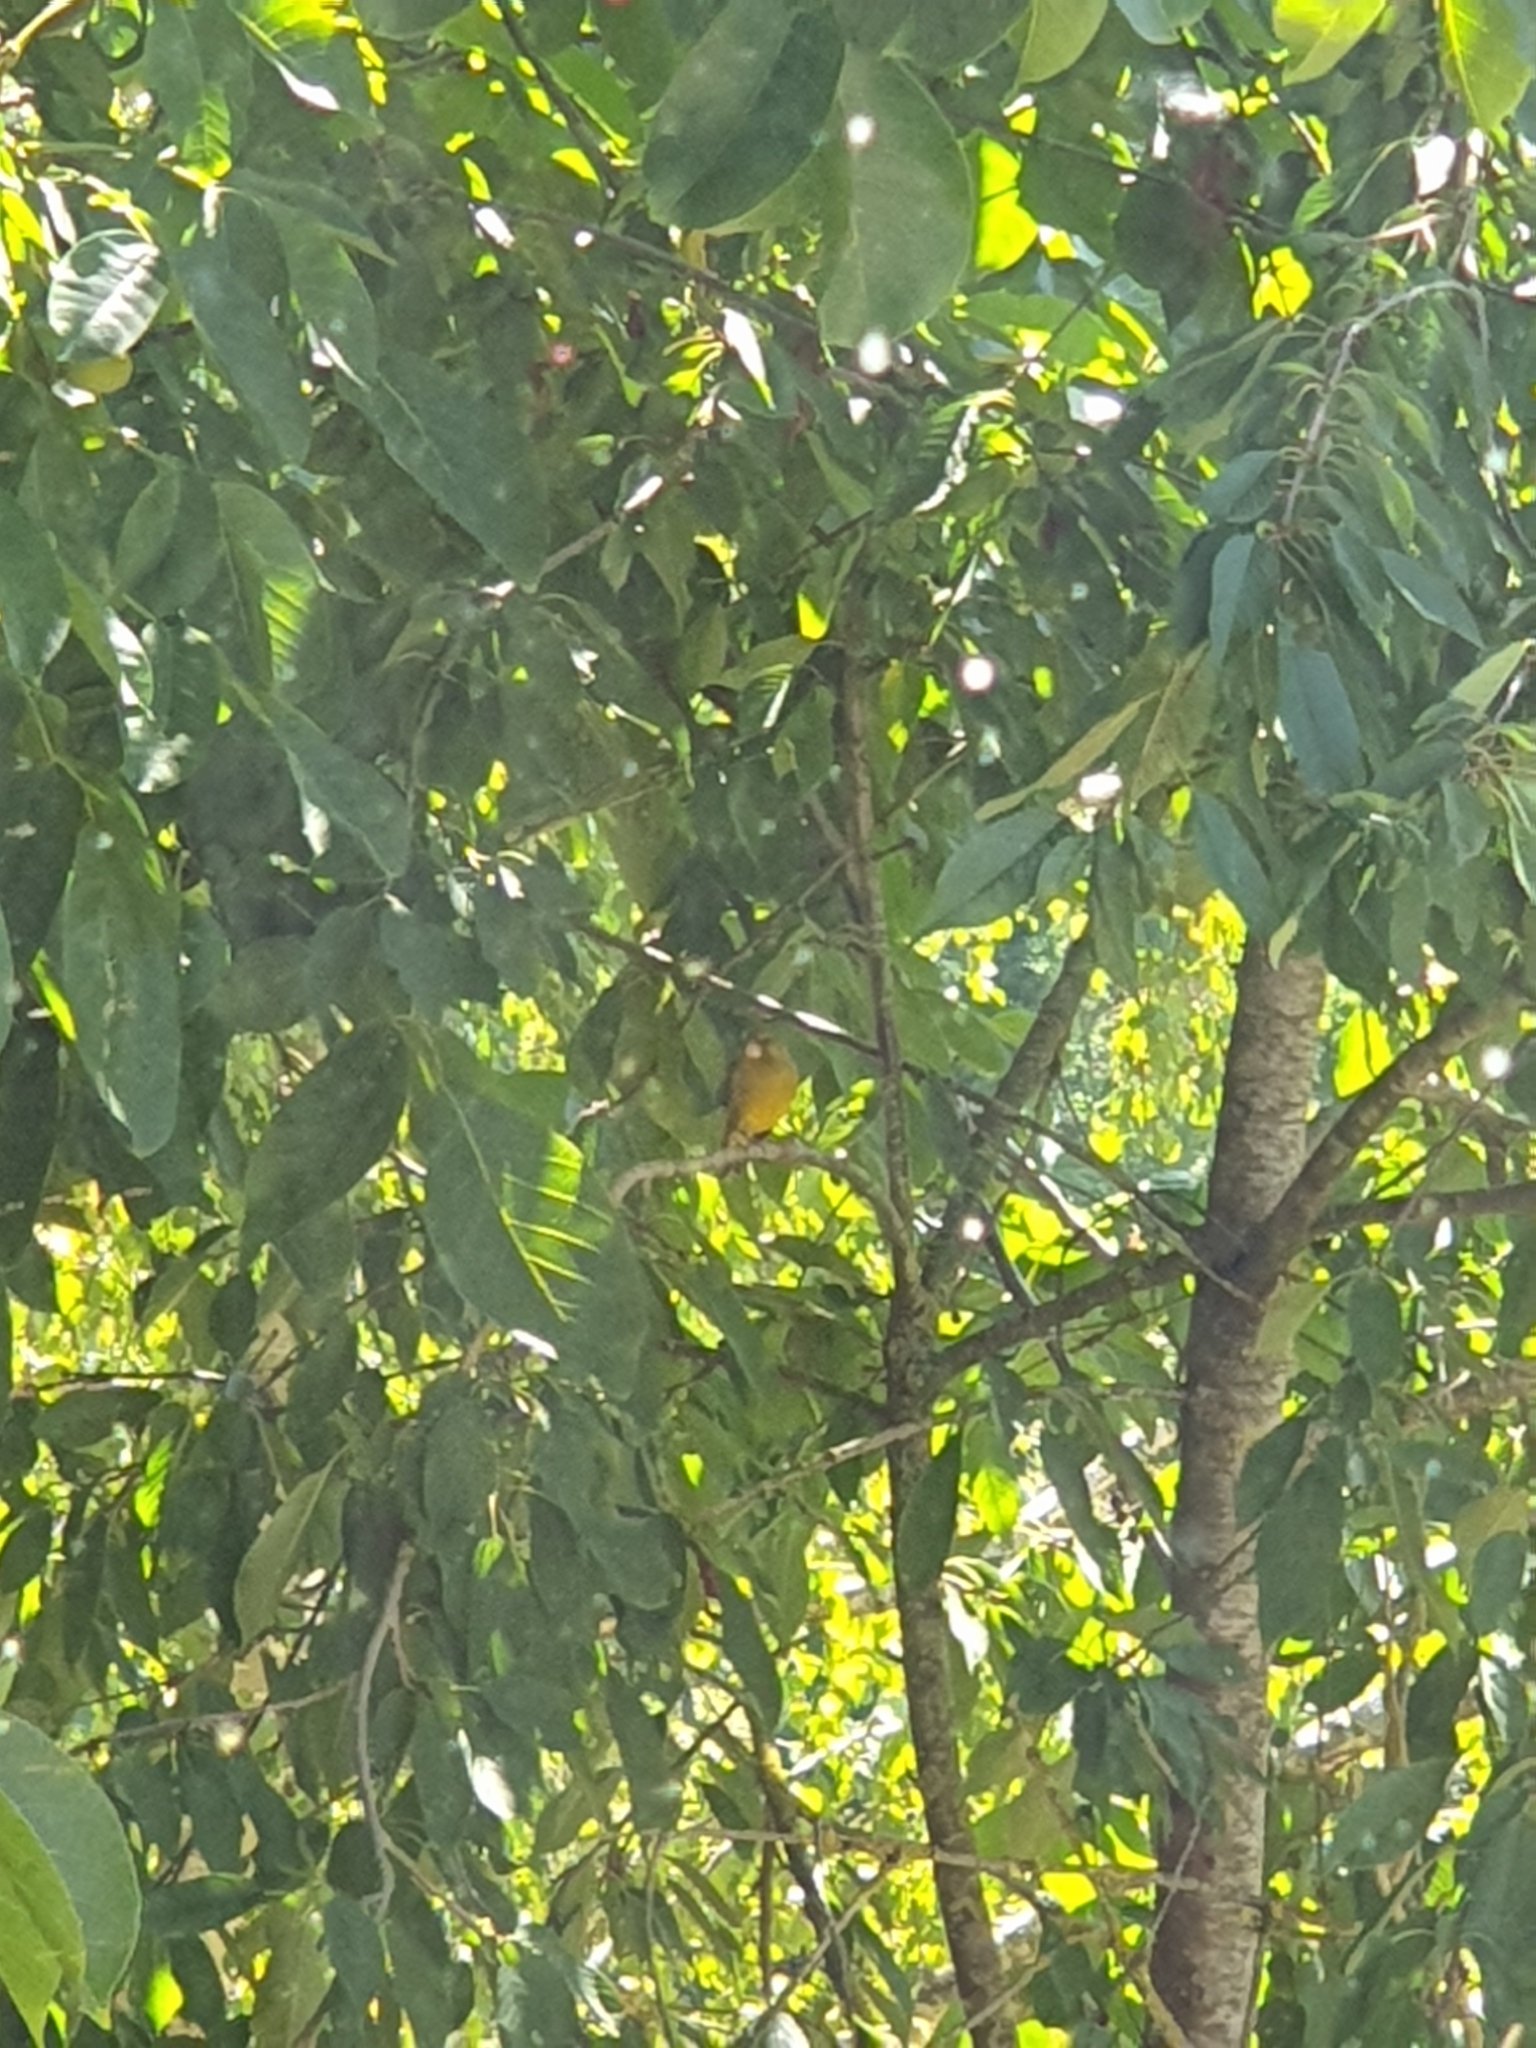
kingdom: Plantae
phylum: Tracheophyta
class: Liliopsida
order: Poales
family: Poaceae
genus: Chloris
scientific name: Chloris chloris
